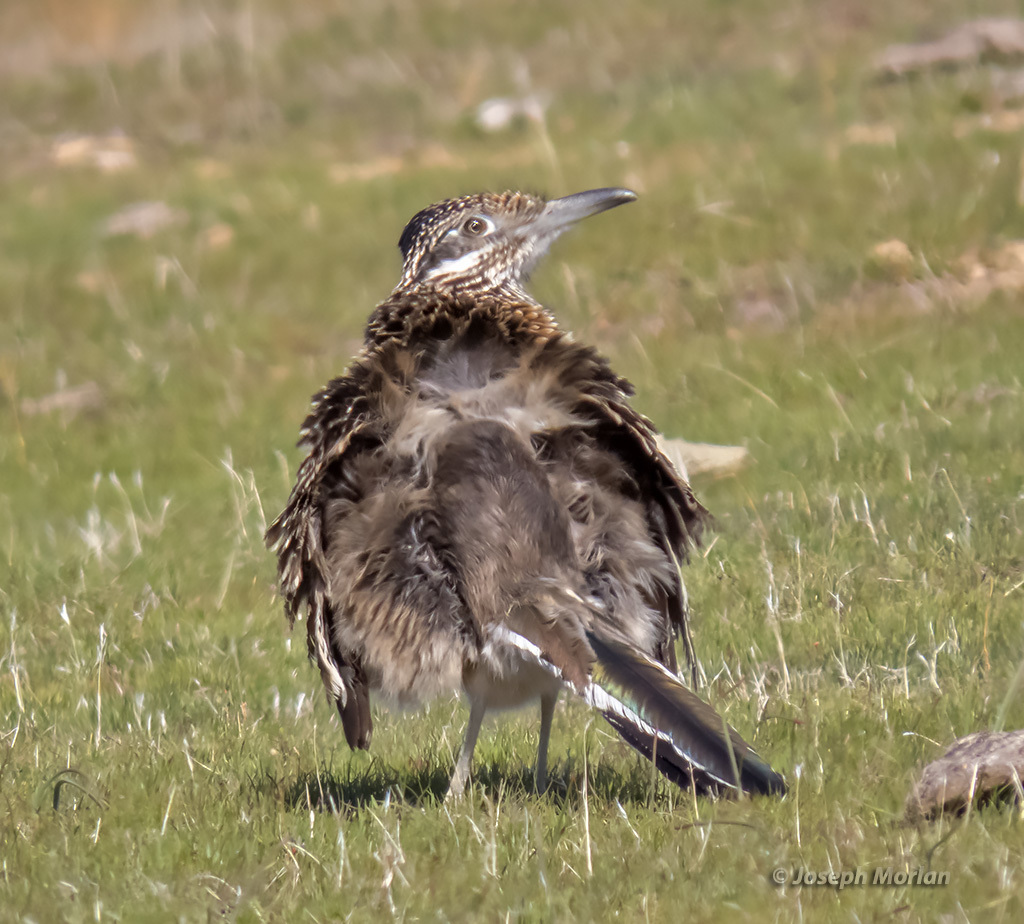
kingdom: Animalia
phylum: Chordata
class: Aves
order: Cuculiformes
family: Cuculidae
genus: Geococcyx
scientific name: Geococcyx californianus
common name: Greater roadrunner
